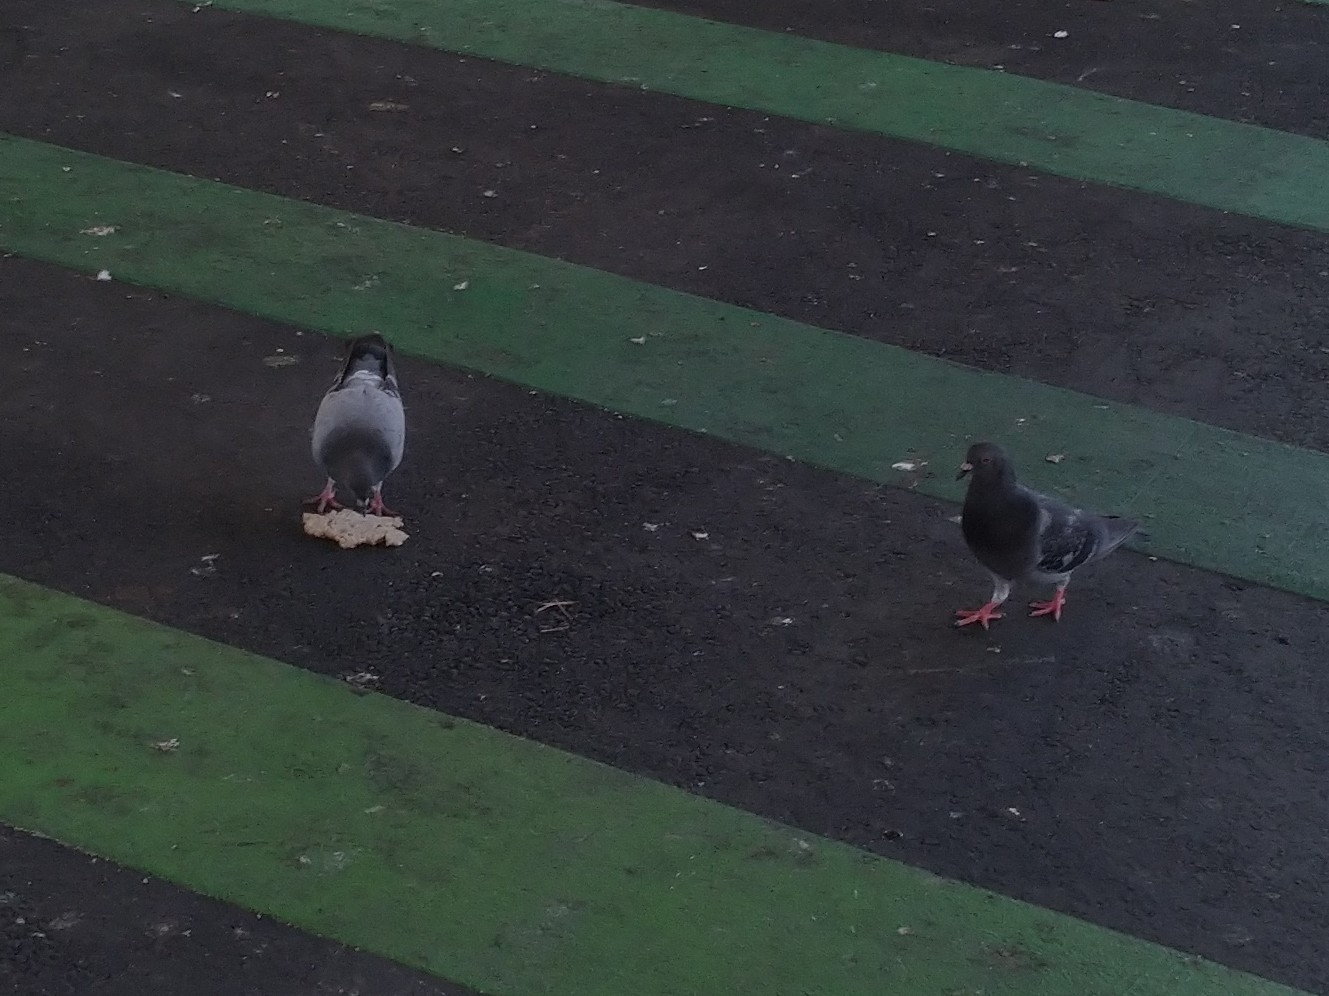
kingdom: Animalia
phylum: Chordata
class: Aves
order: Columbiformes
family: Columbidae
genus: Columba
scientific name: Columba livia
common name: Rock pigeon
